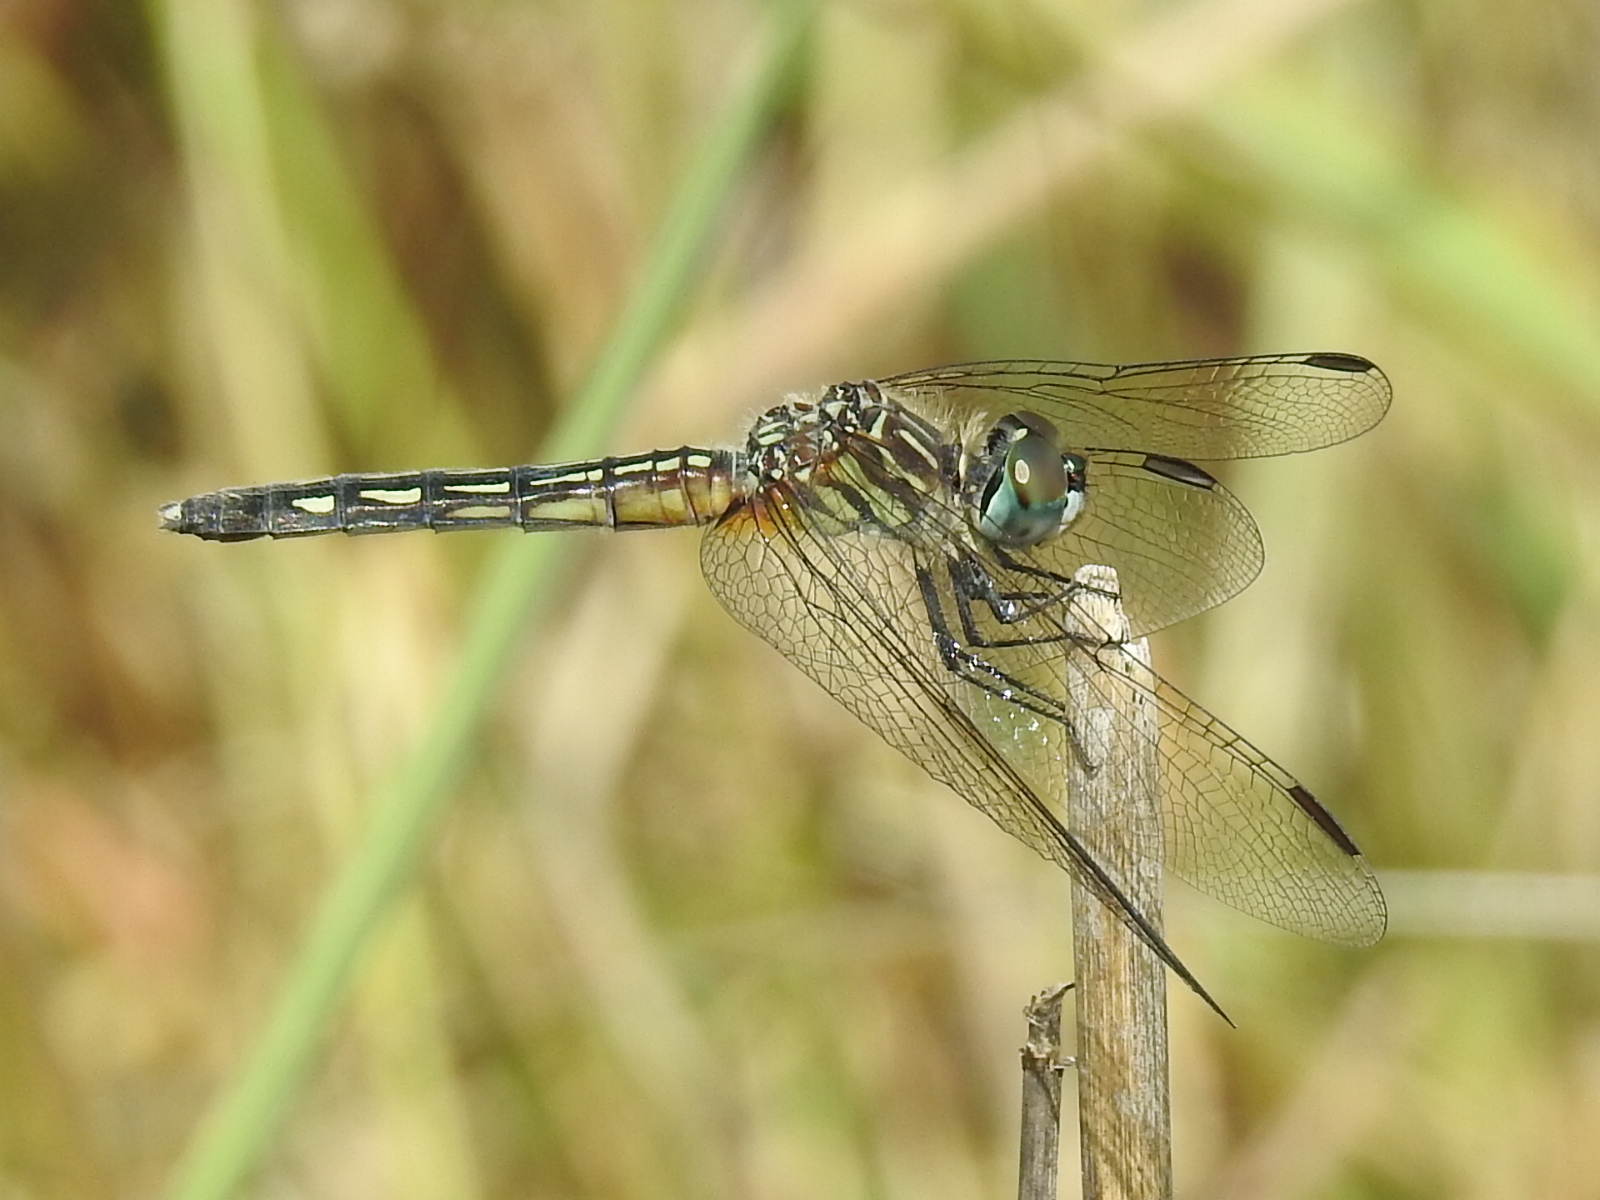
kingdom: Animalia
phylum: Arthropoda
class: Insecta
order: Odonata
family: Libellulidae
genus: Pachydiplax
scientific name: Pachydiplax longipennis
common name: Blue dasher
